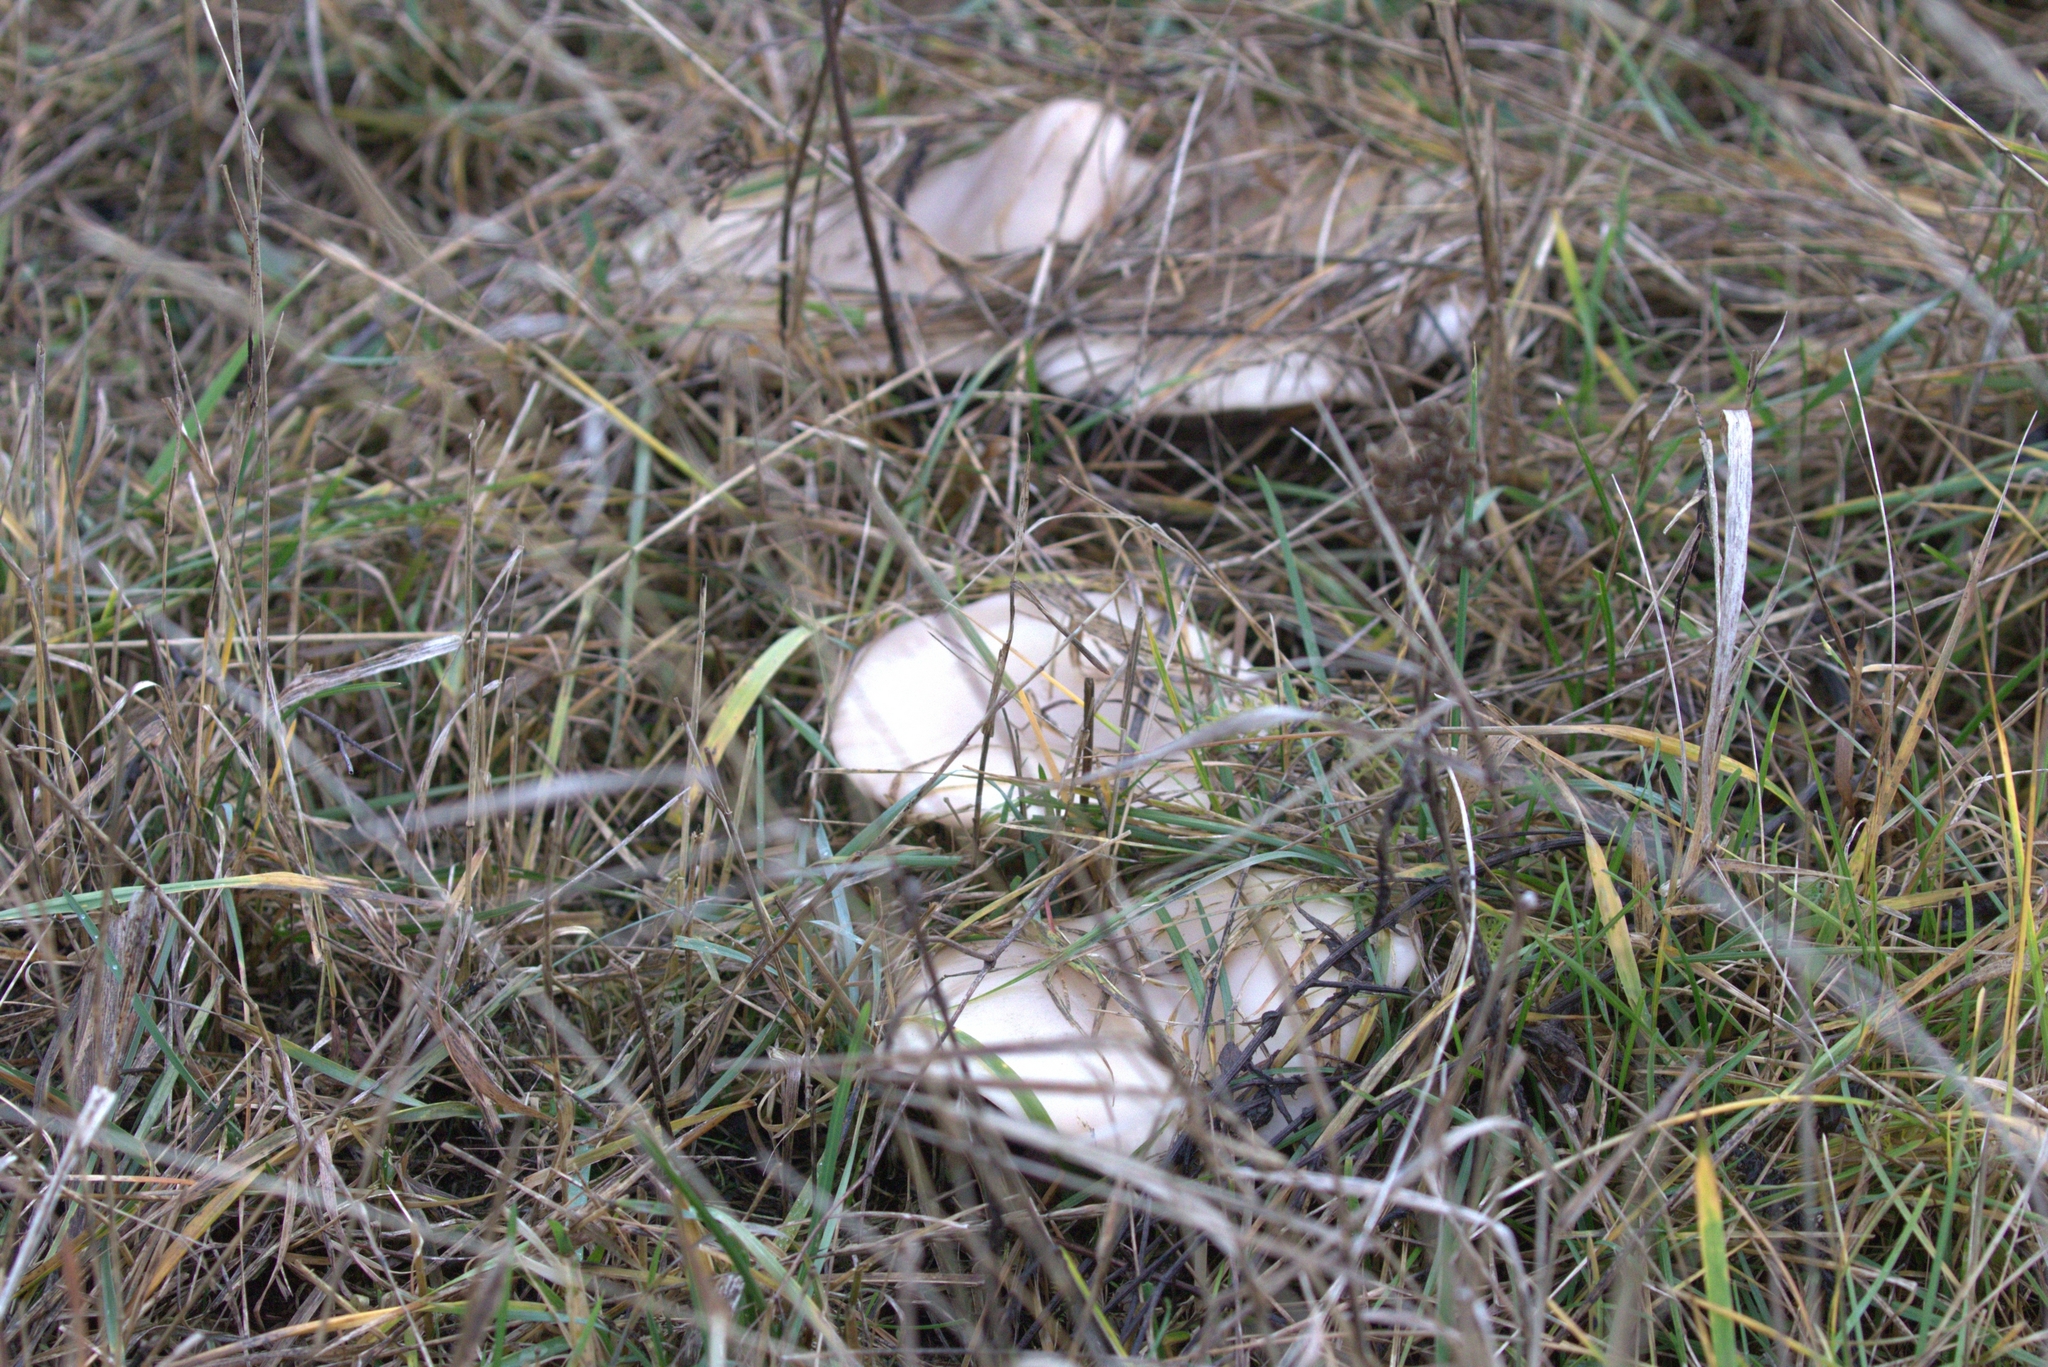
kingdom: Fungi
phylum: Basidiomycota
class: Agaricomycetes
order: Agaricales
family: Omphalotaceae
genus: Collybiopsis
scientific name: Collybiopsis peronata
